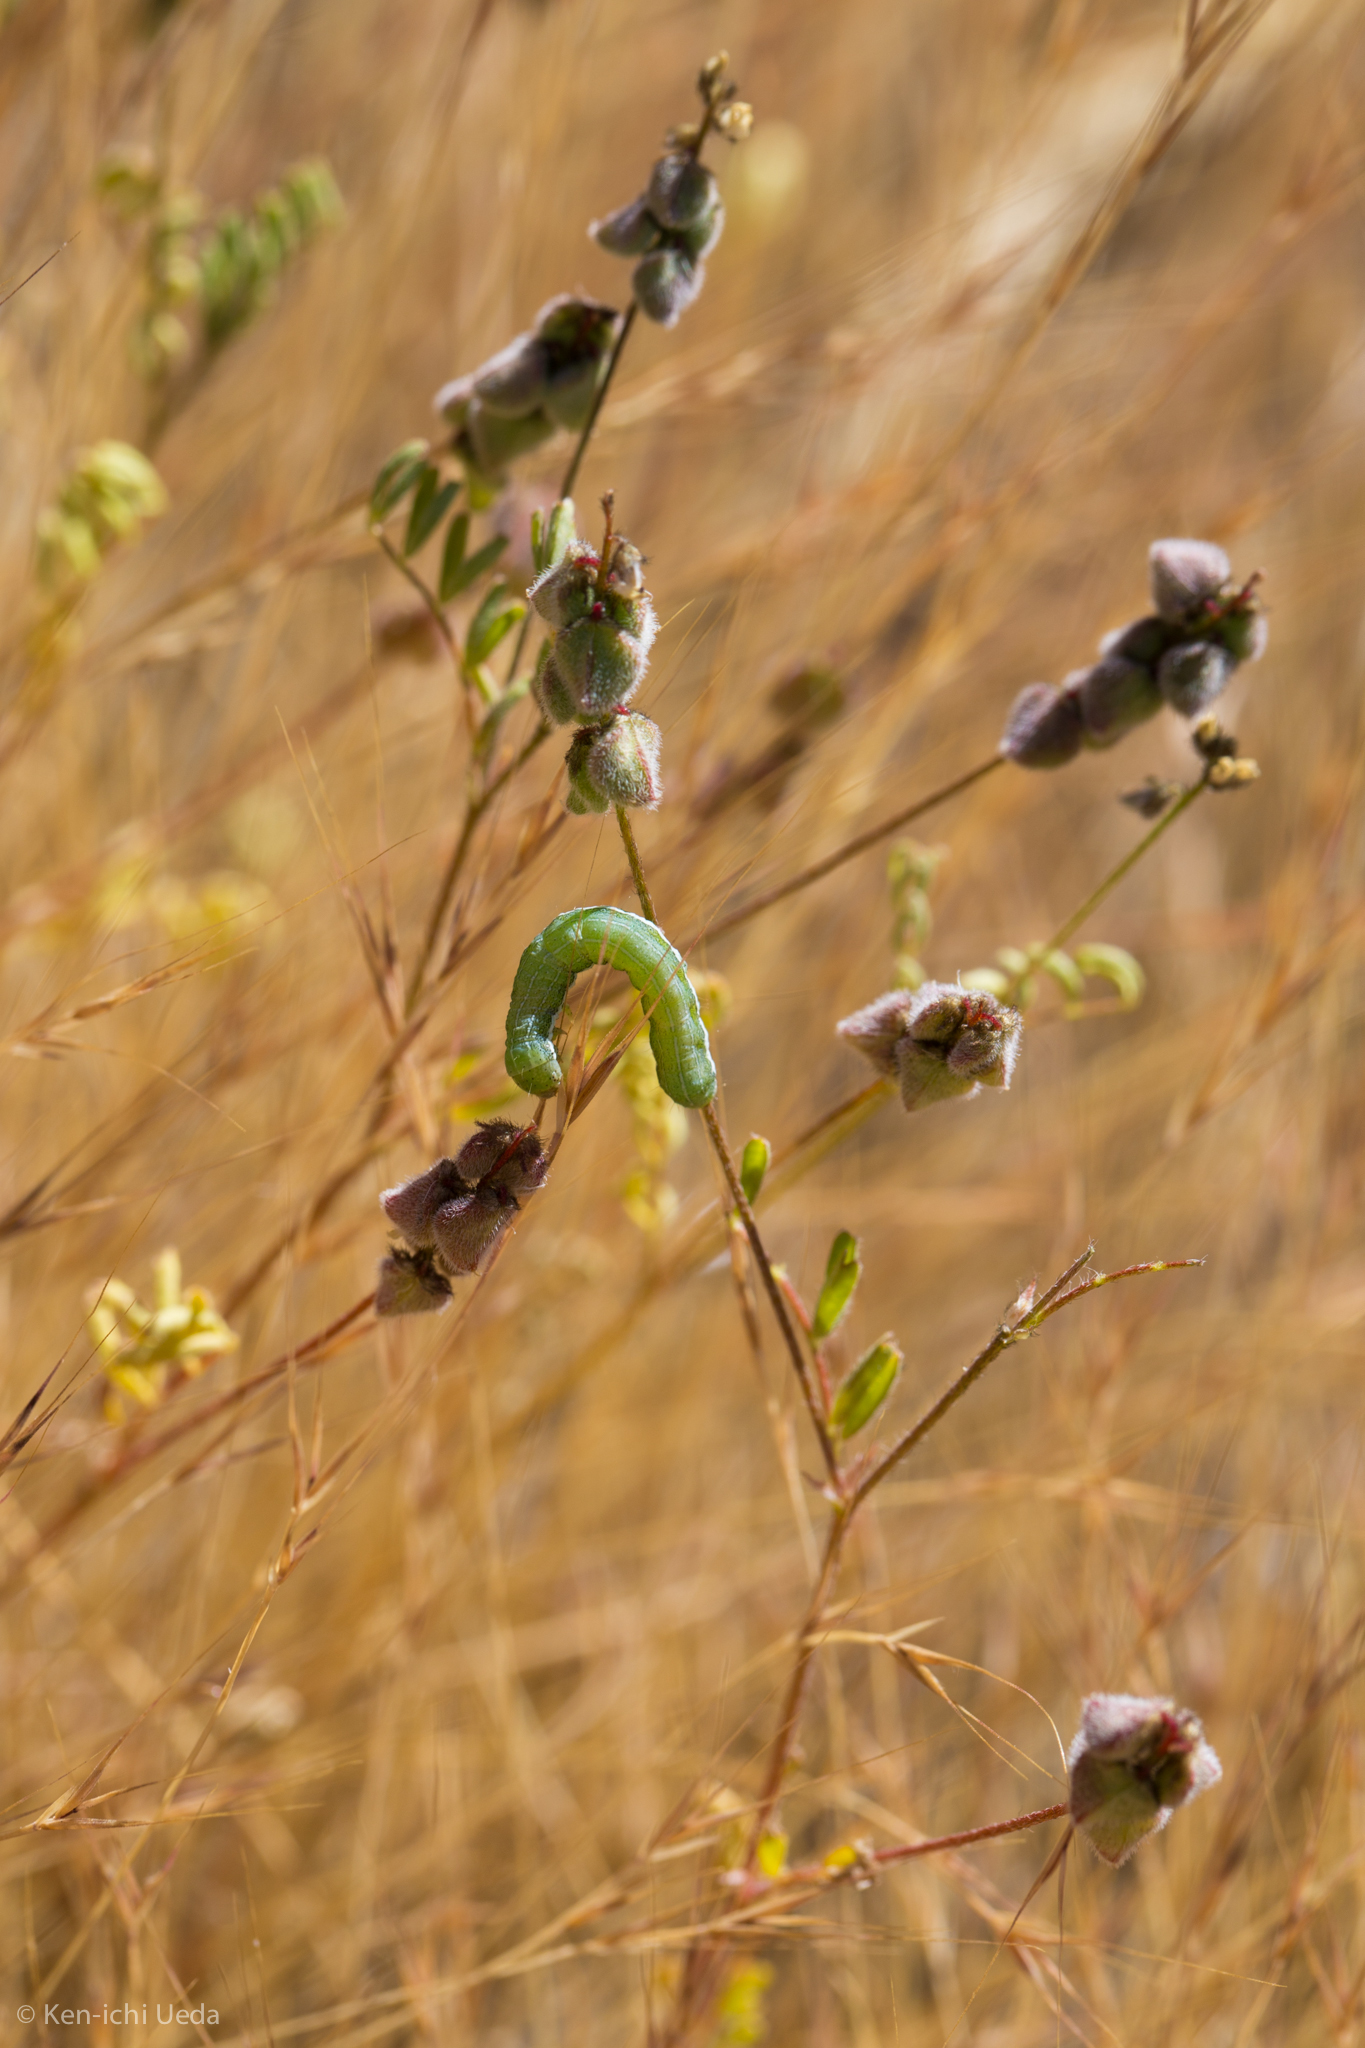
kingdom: Plantae
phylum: Tracheophyta
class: Magnoliopsida
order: Fabales
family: Fabaceae
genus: Astragalus
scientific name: Astragalus gambelianus
